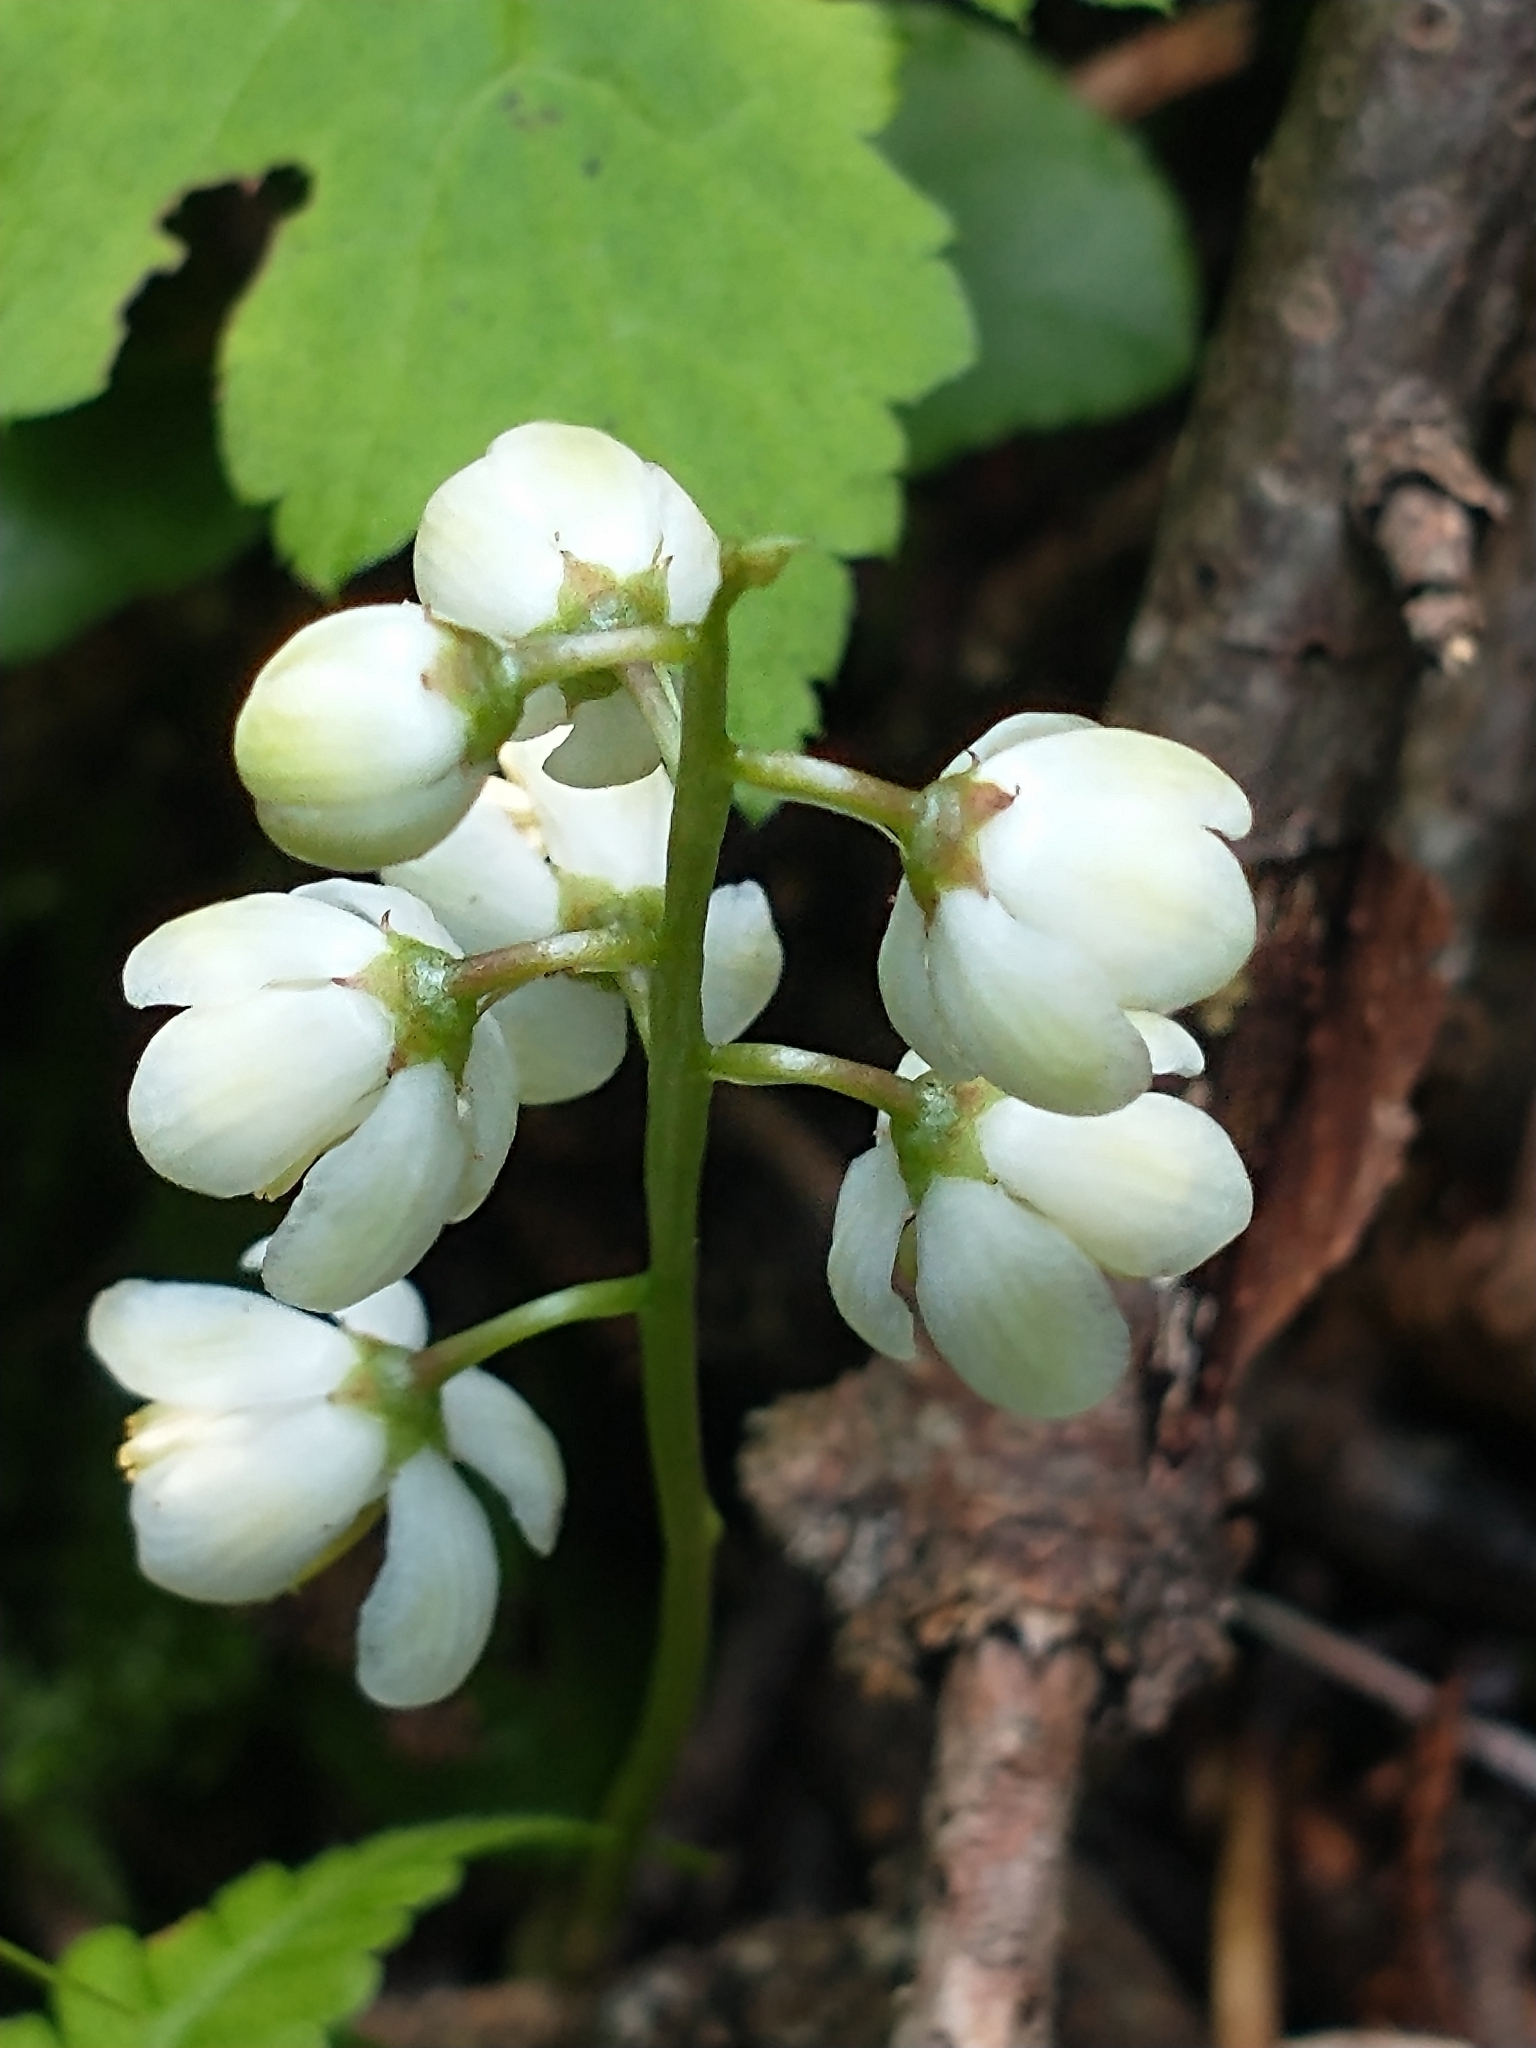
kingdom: Plantae
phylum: Tracheophyta
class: Magnoliopsida
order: Ericales
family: Ericaceae
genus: Pyrola
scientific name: Pyrola elliptica
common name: Shinleaf
